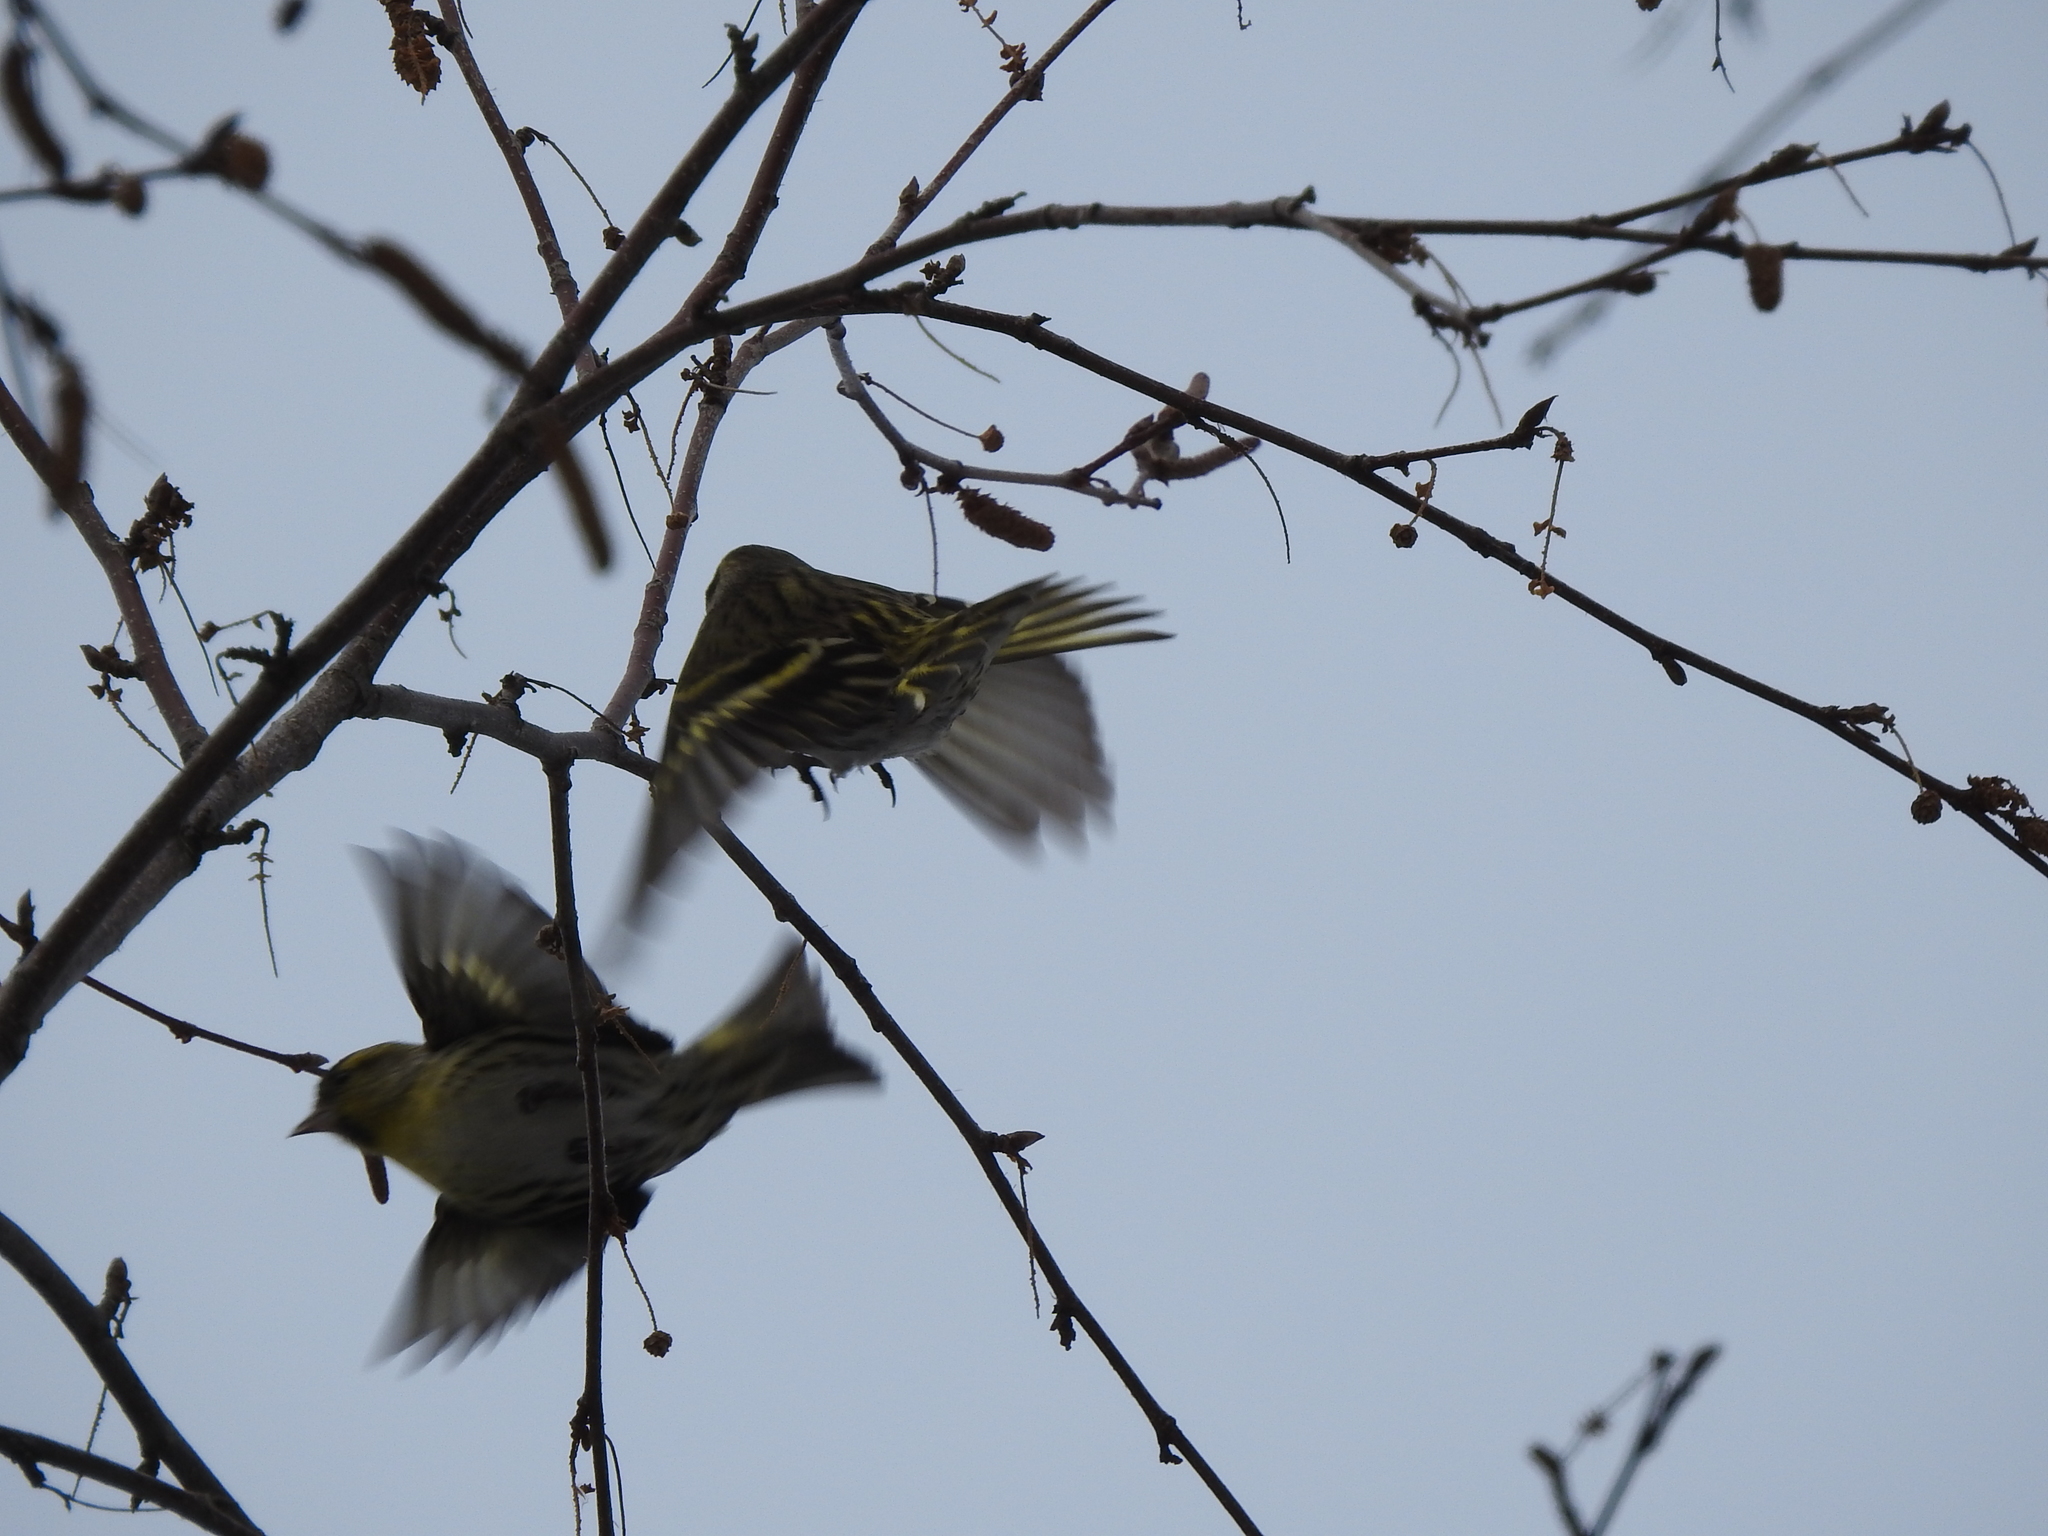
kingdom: Animalia
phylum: Chordata
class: Aves
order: Passeriformes
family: Fringillidae
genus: Spinus
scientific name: Spinus spinus
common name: Eurasian siskin
